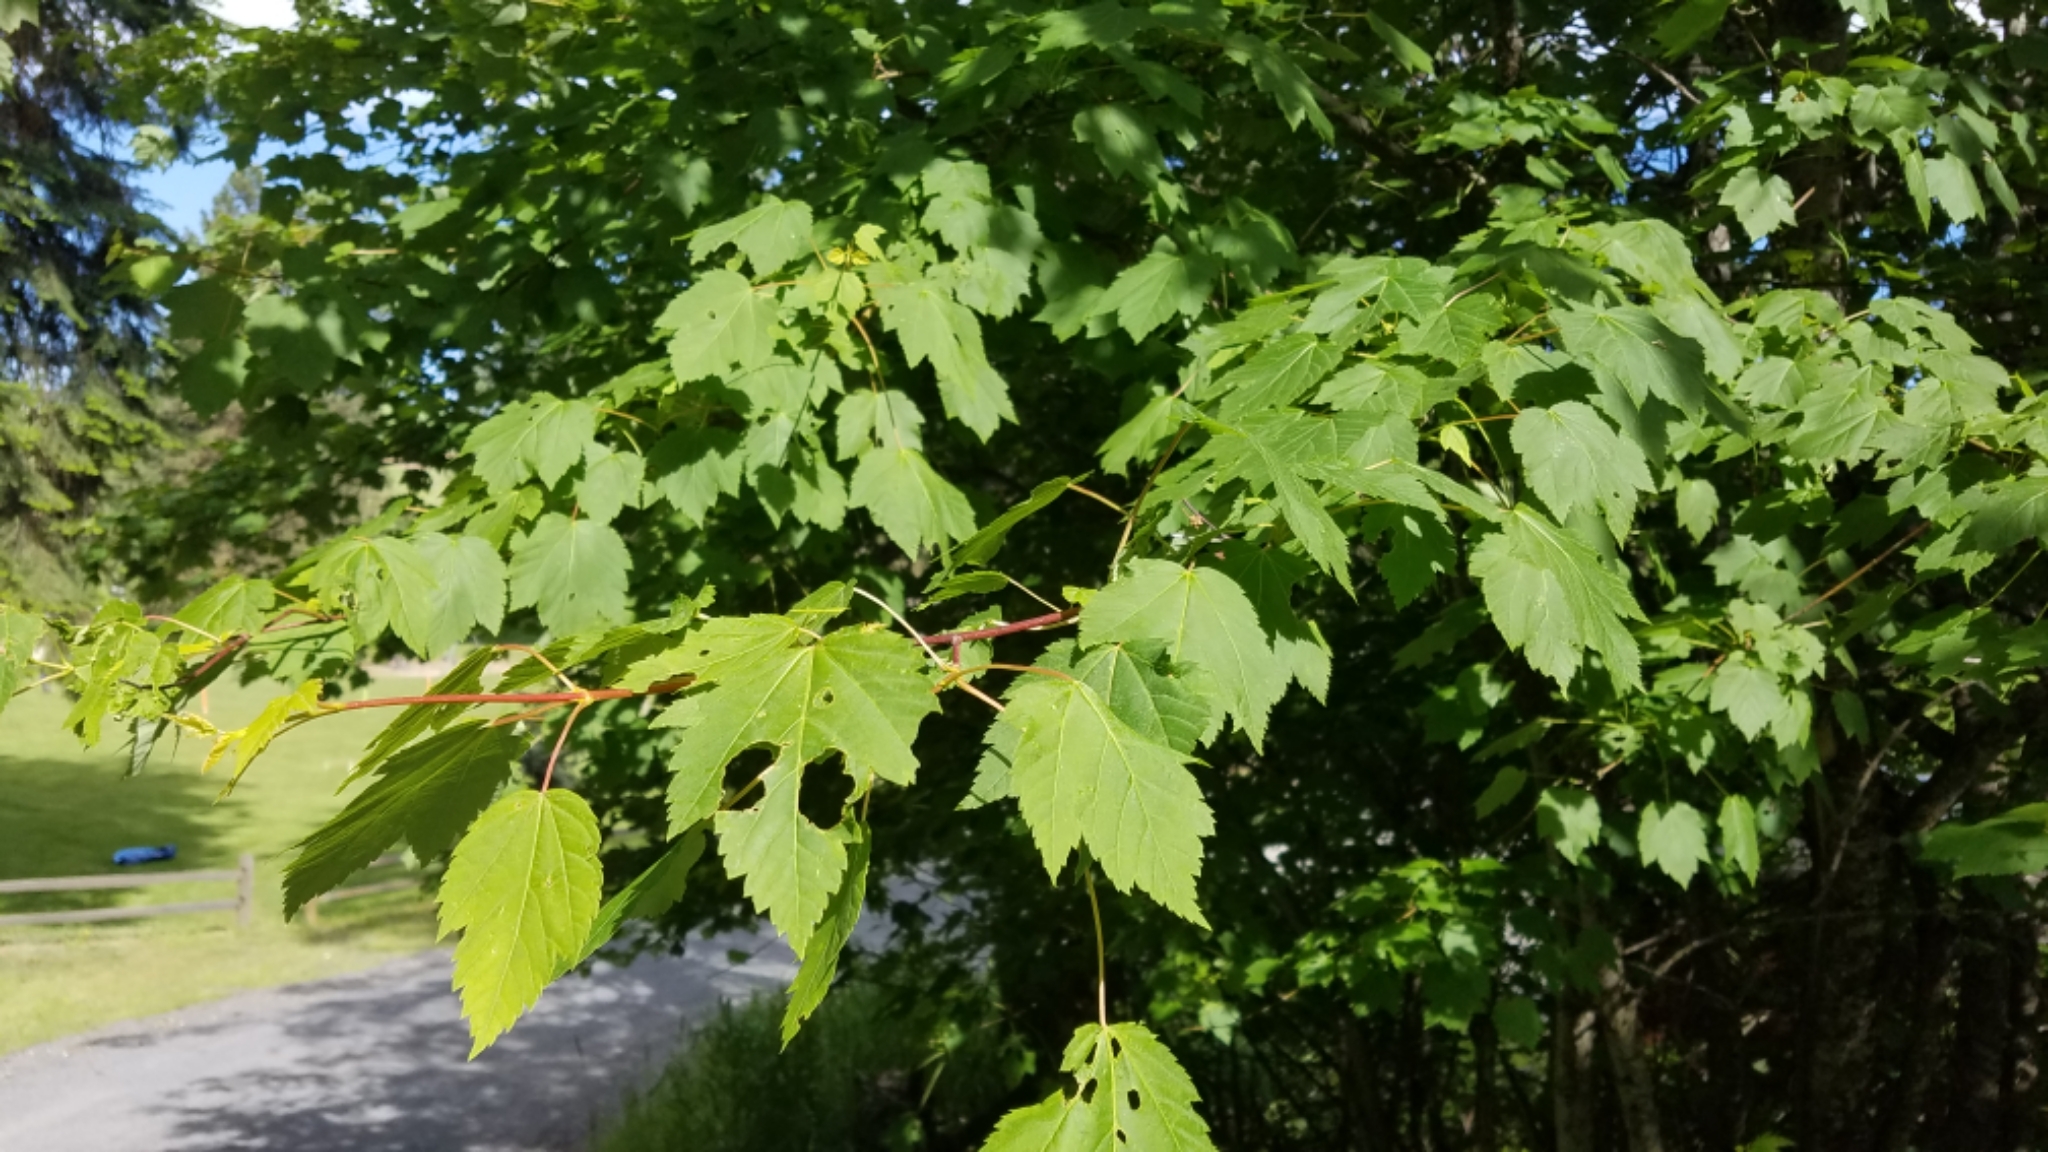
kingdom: Plantae
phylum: Tracheophyta
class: Magnoliopsida
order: Sapindales
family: Sapindaceae
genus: Acer
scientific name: Acer glabrum
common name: Rocky mountain maple
